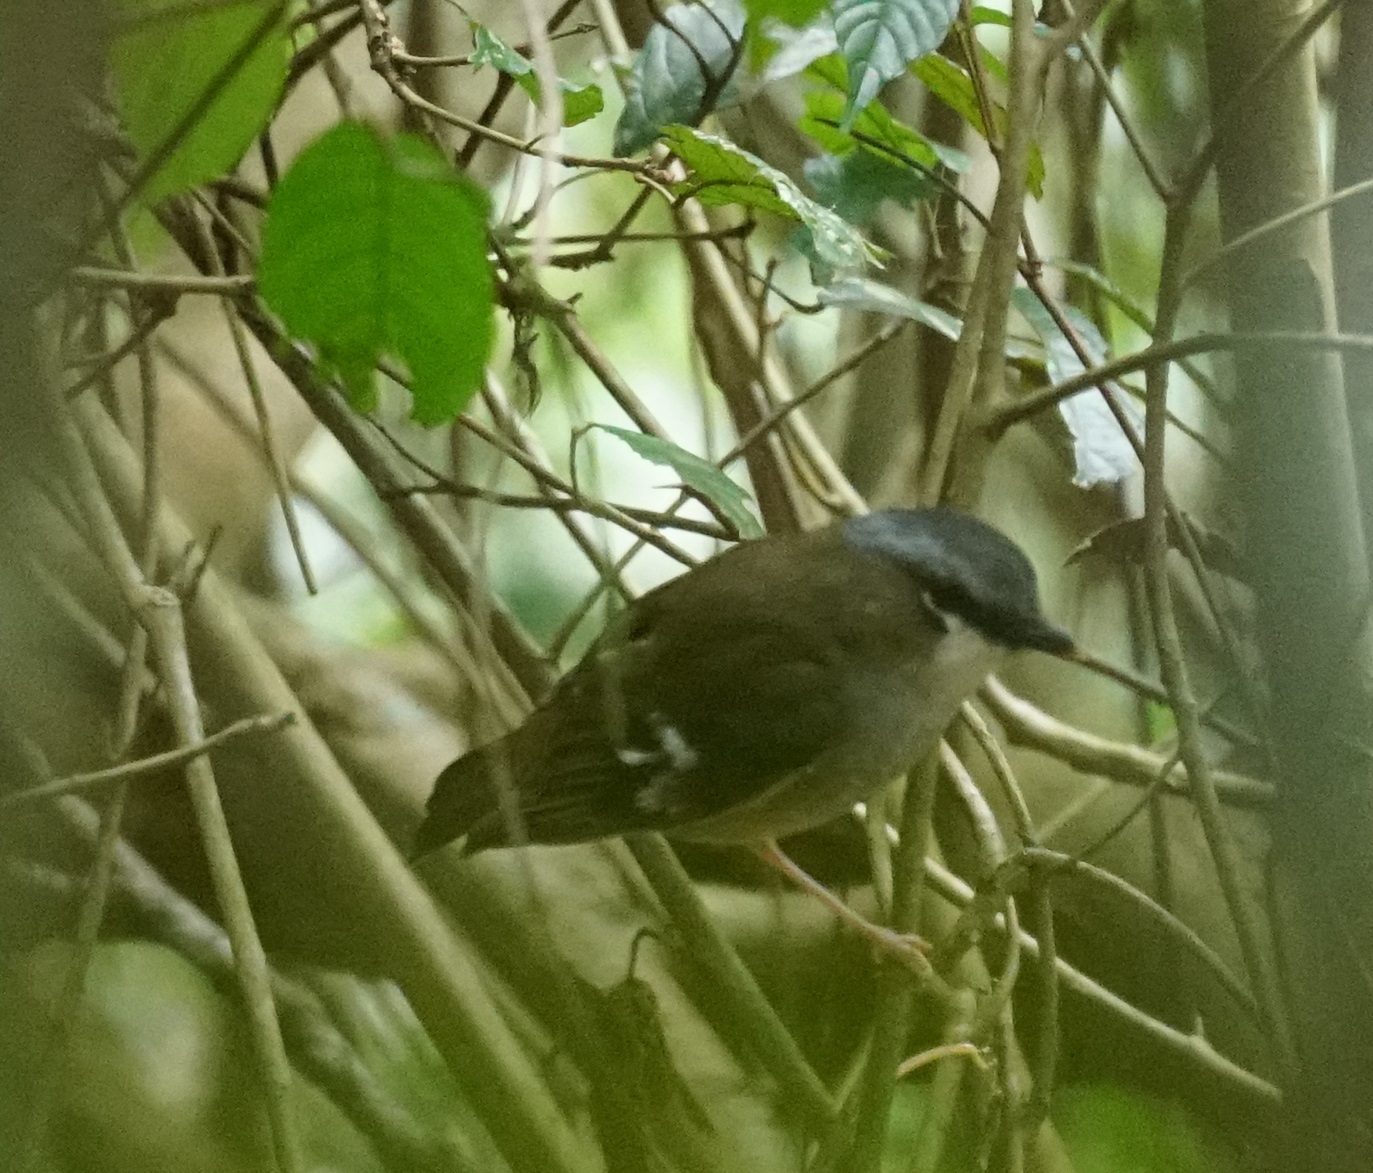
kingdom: Animalia
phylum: Chordata
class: Aves
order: Passeriformes
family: Petroicidae
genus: Heteromyias
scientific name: Heteromyias cinereifrons
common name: Grey-headed robin
